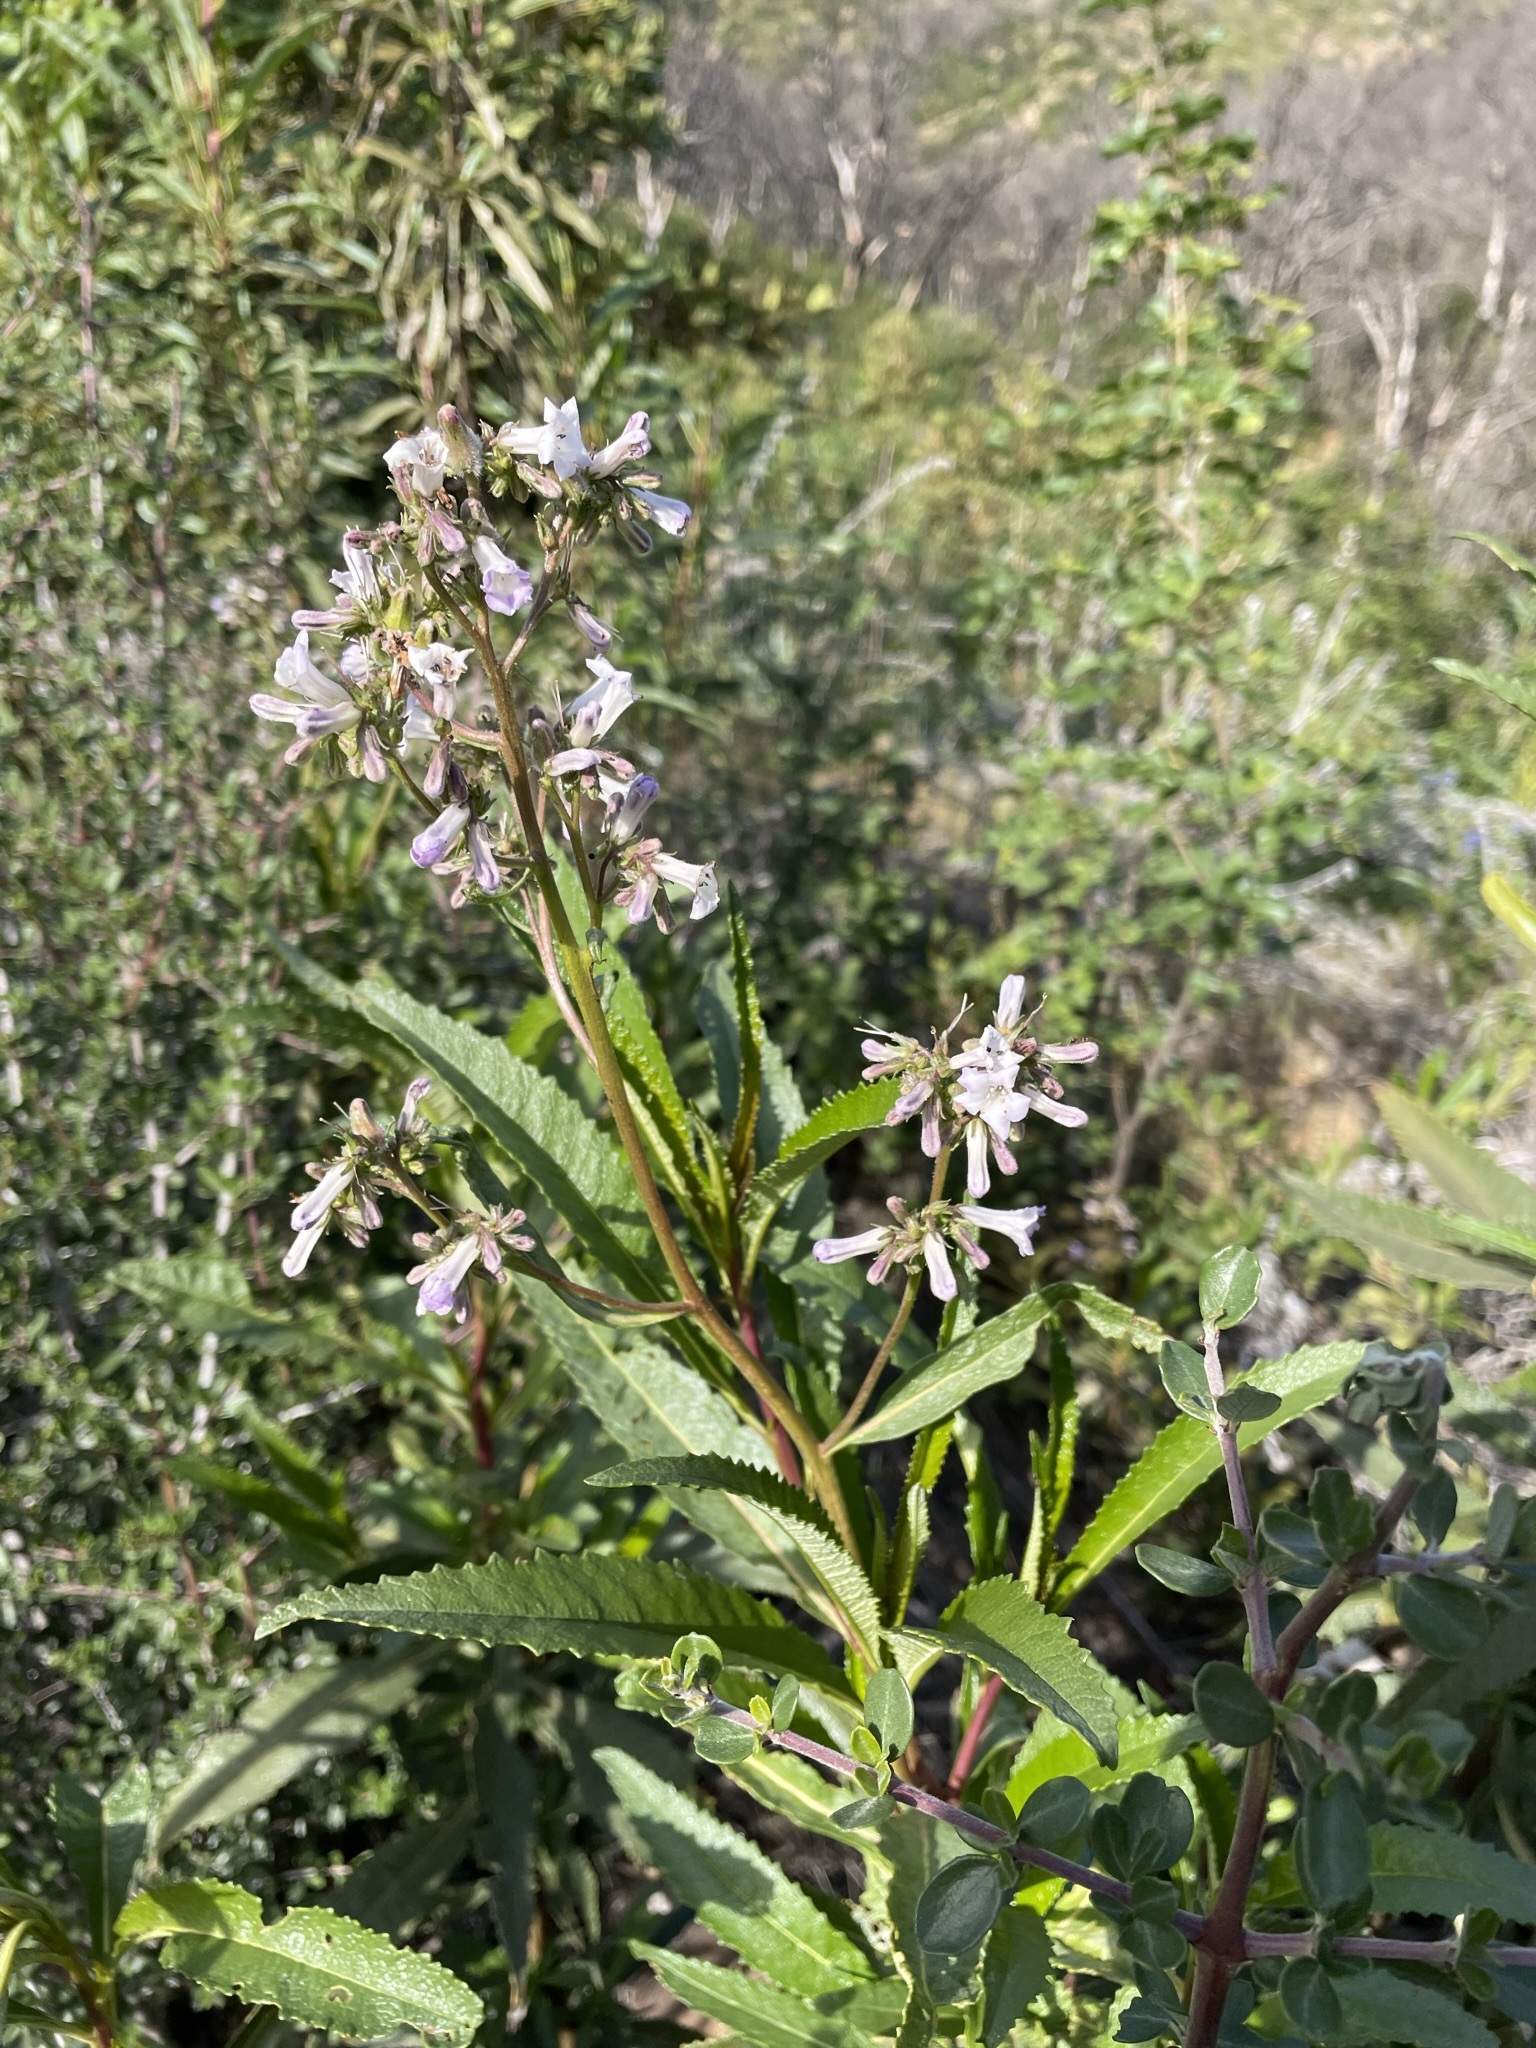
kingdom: Plantae
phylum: Tracheophyta
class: Magnoliopsida
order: Boraginales
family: Namaceae
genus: Eriodictyon
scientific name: Eriodictyon californicum
